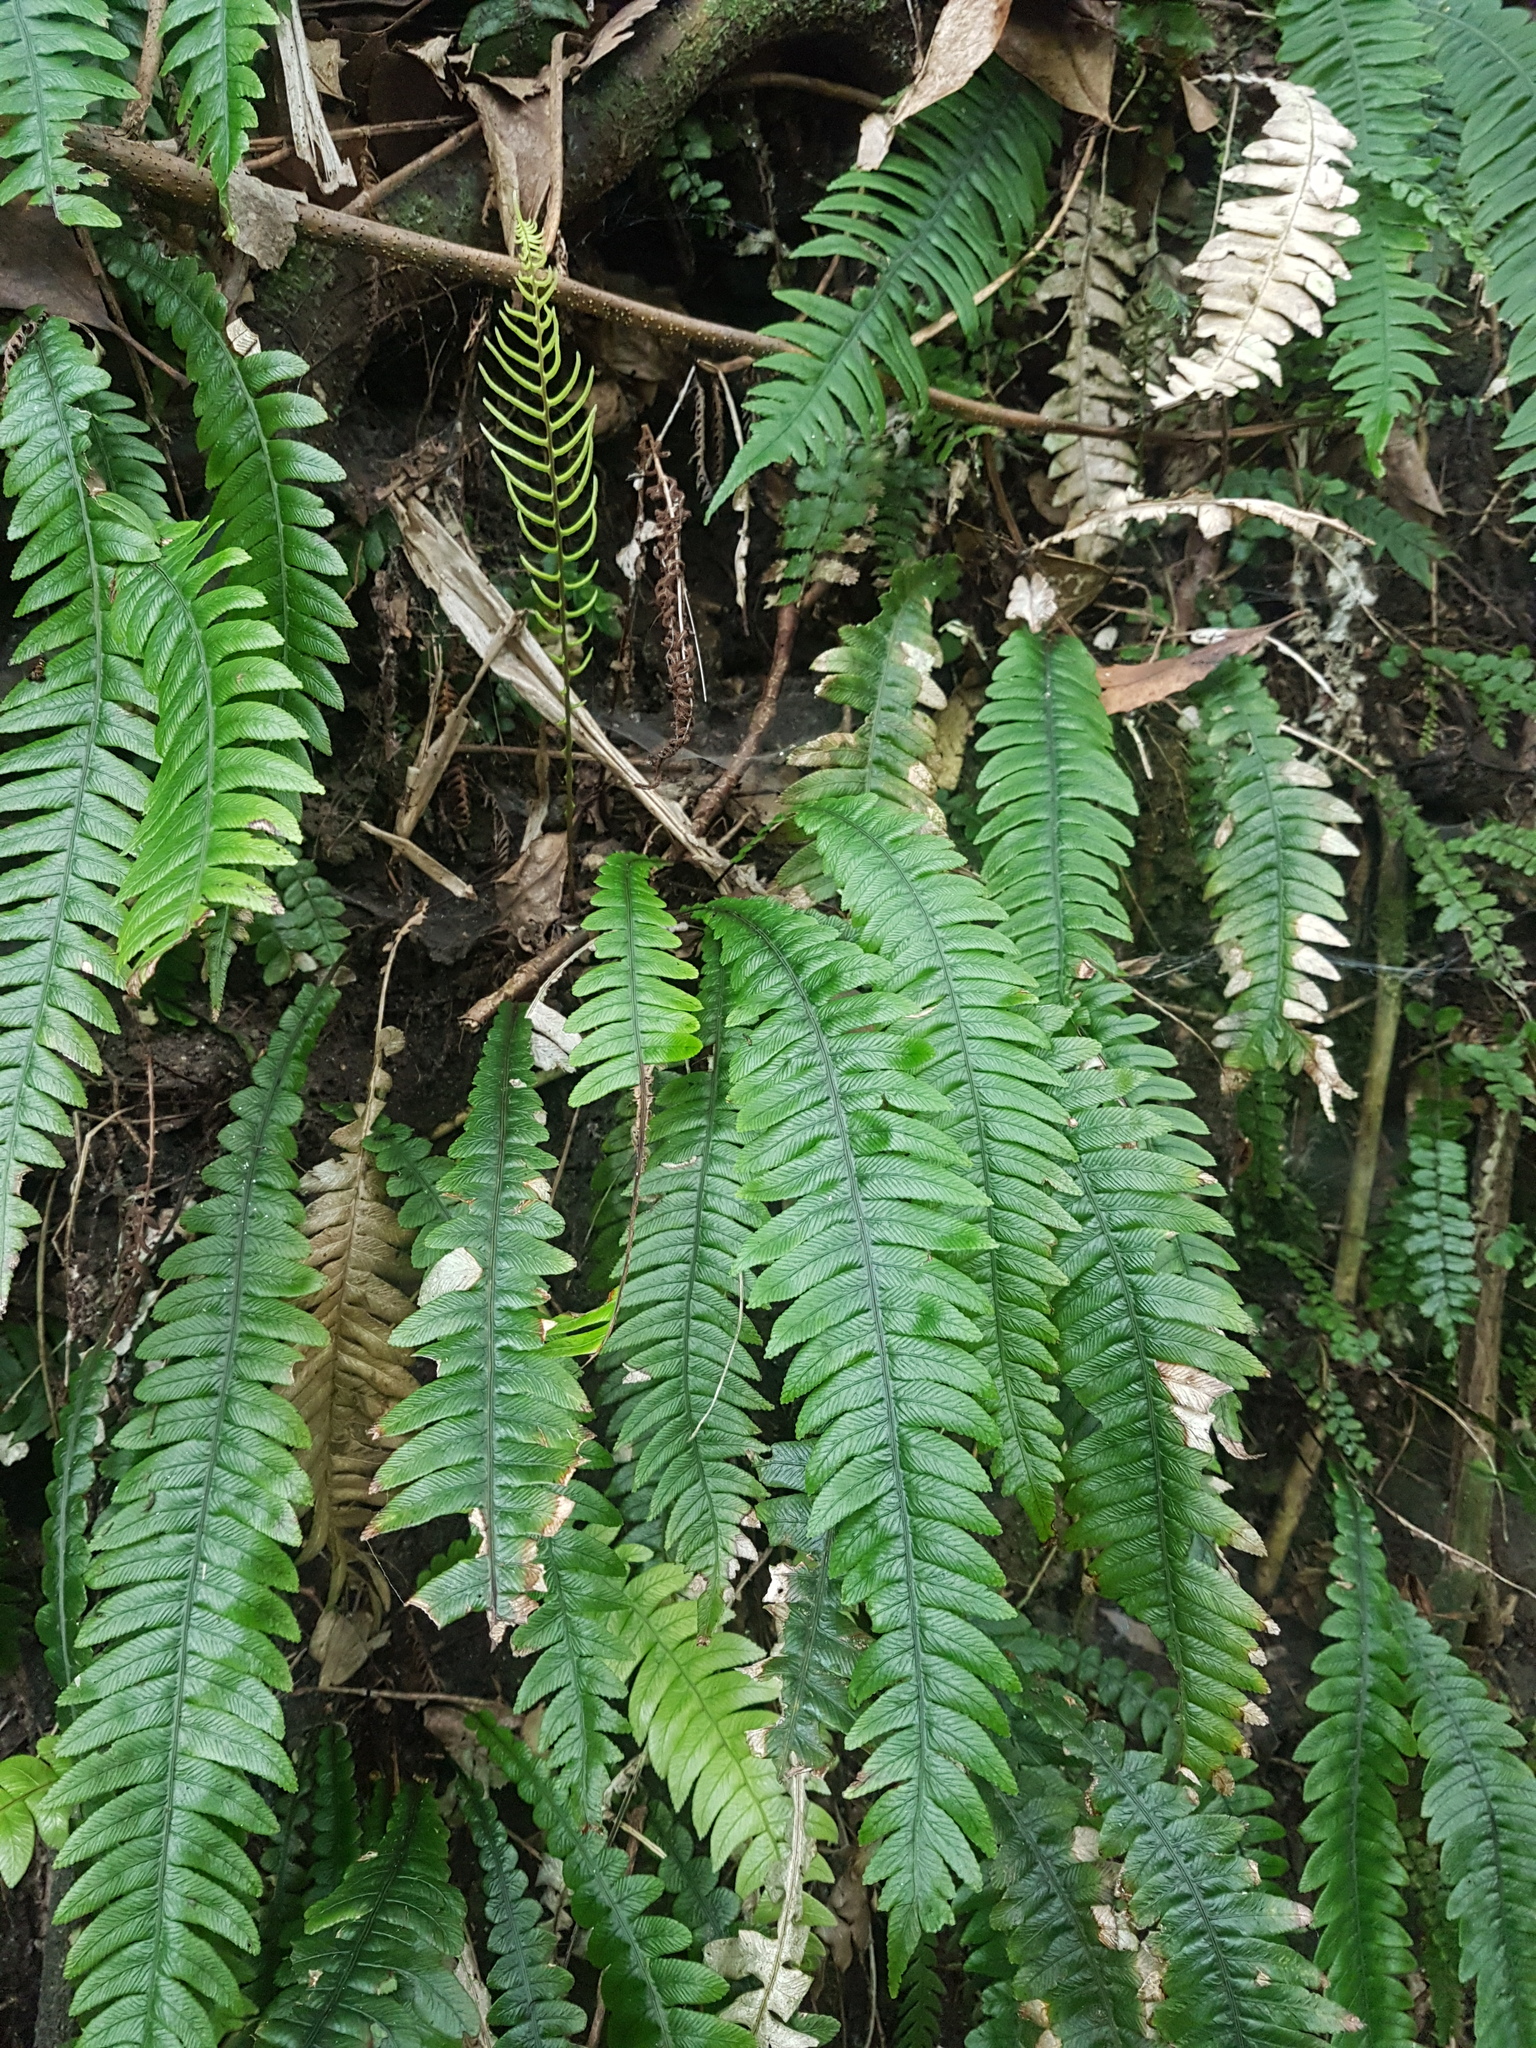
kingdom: Plantae
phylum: Tracheophyta
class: Polypodiopsida
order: Polypodiales
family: Blechnaceae
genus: Austroblechnum
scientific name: Austroblechnum lanceolatum
